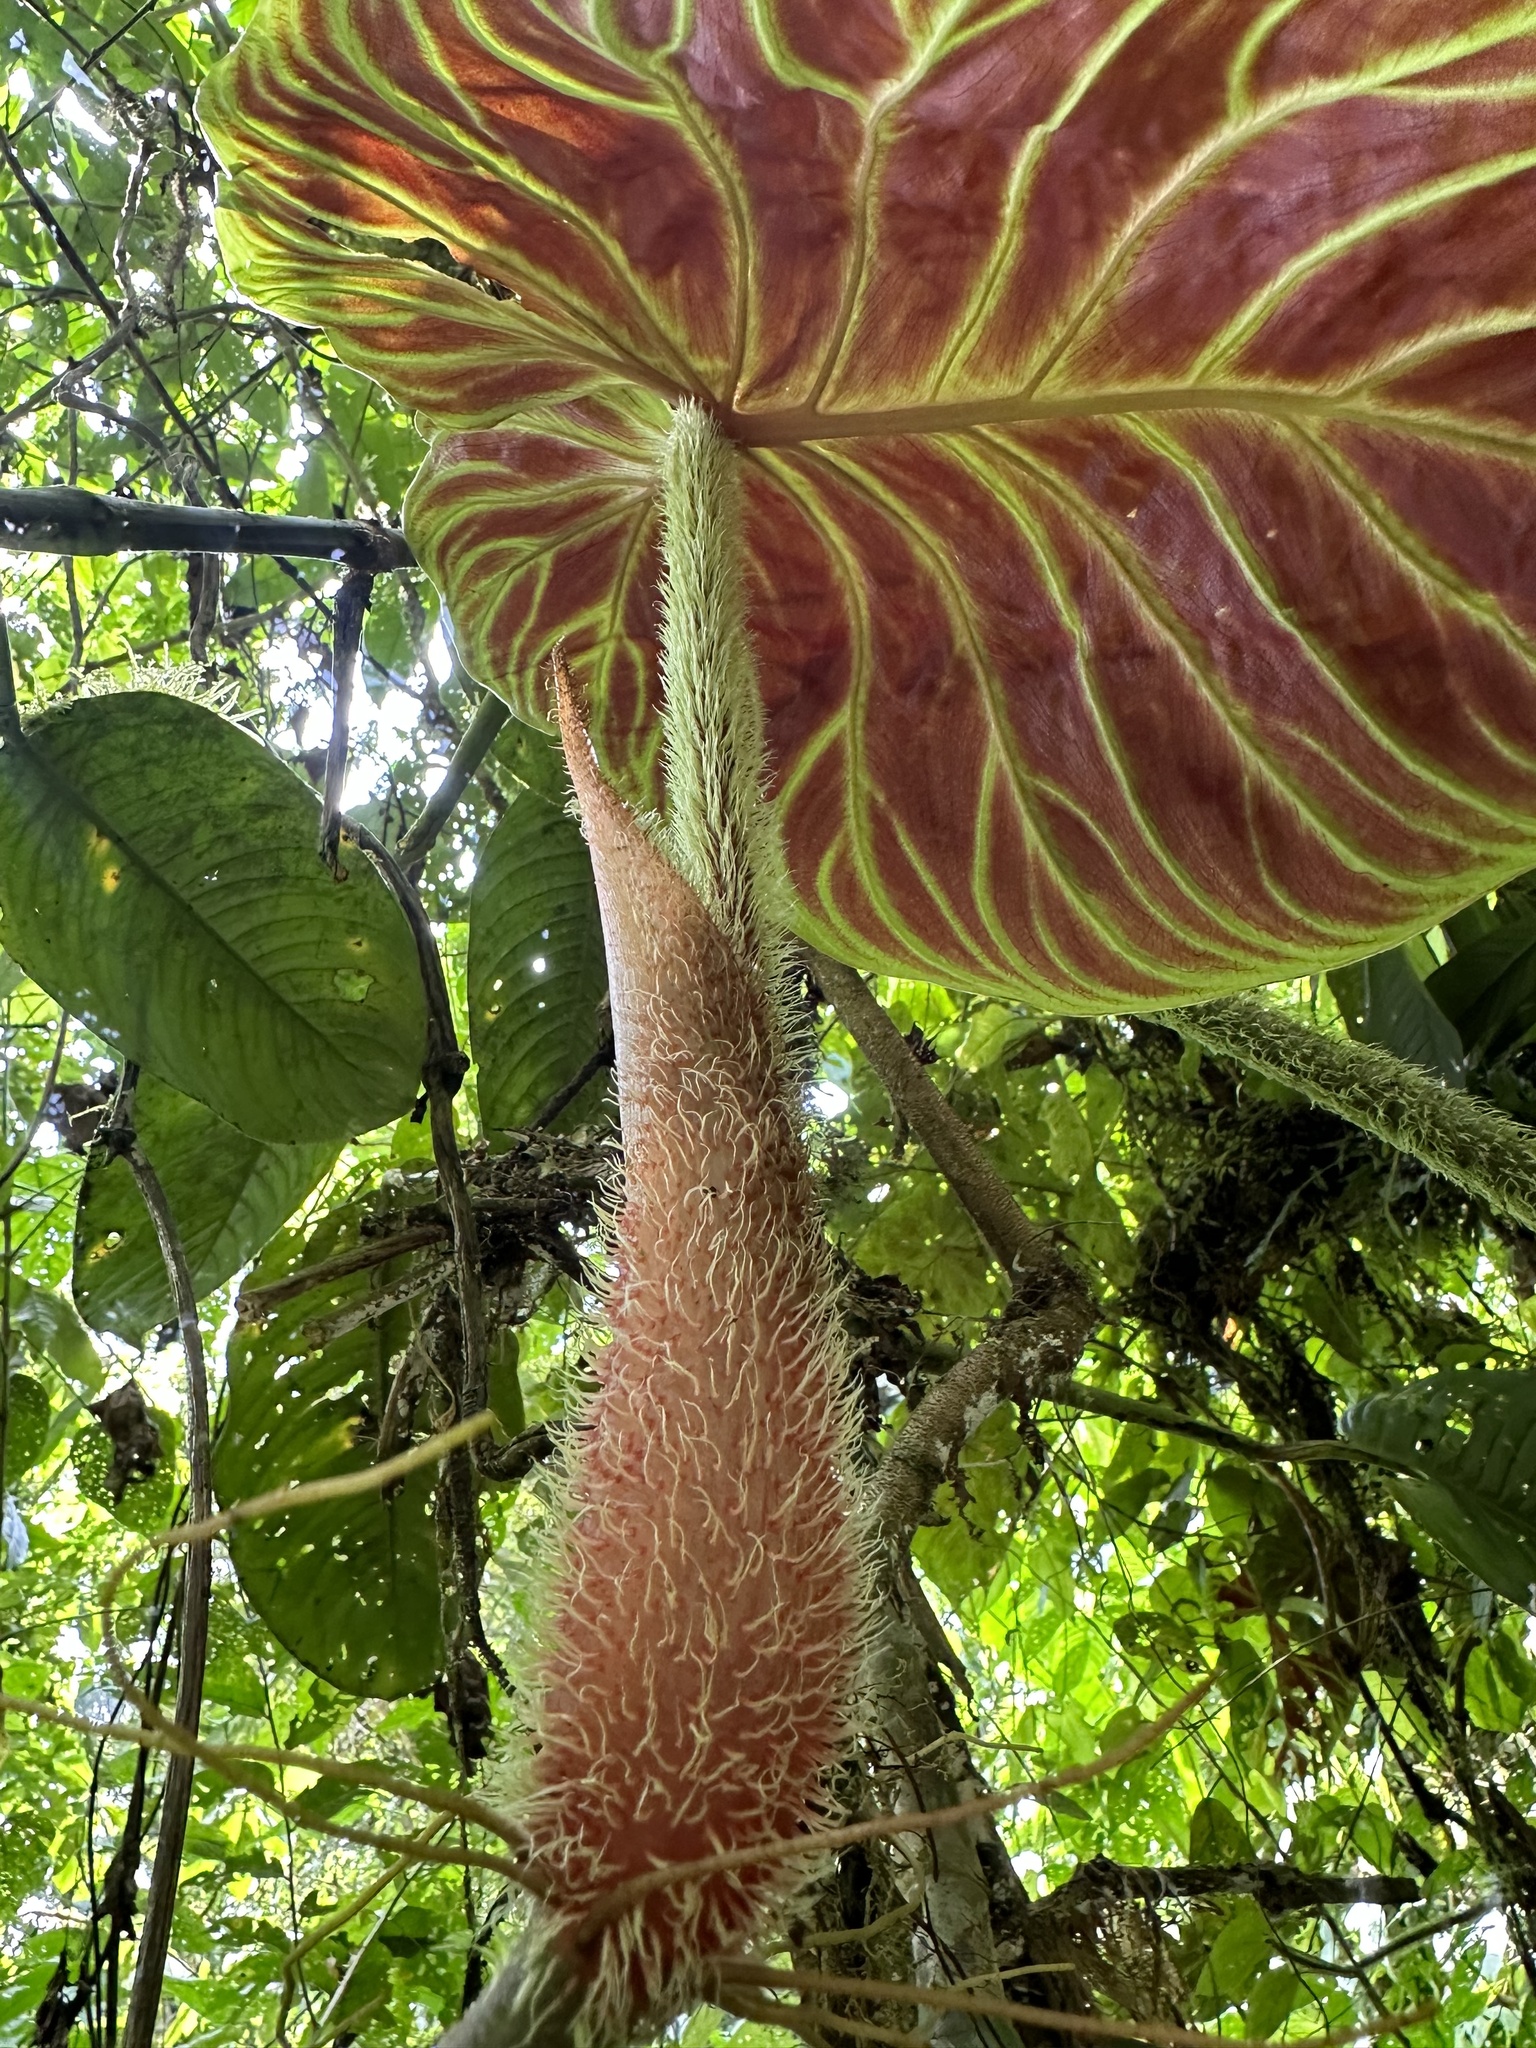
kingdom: Plantae
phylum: Tracheophyta
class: Liliopsida
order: Alismatales
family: Araceae
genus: Philodendron
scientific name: Philodendron verrucosum
